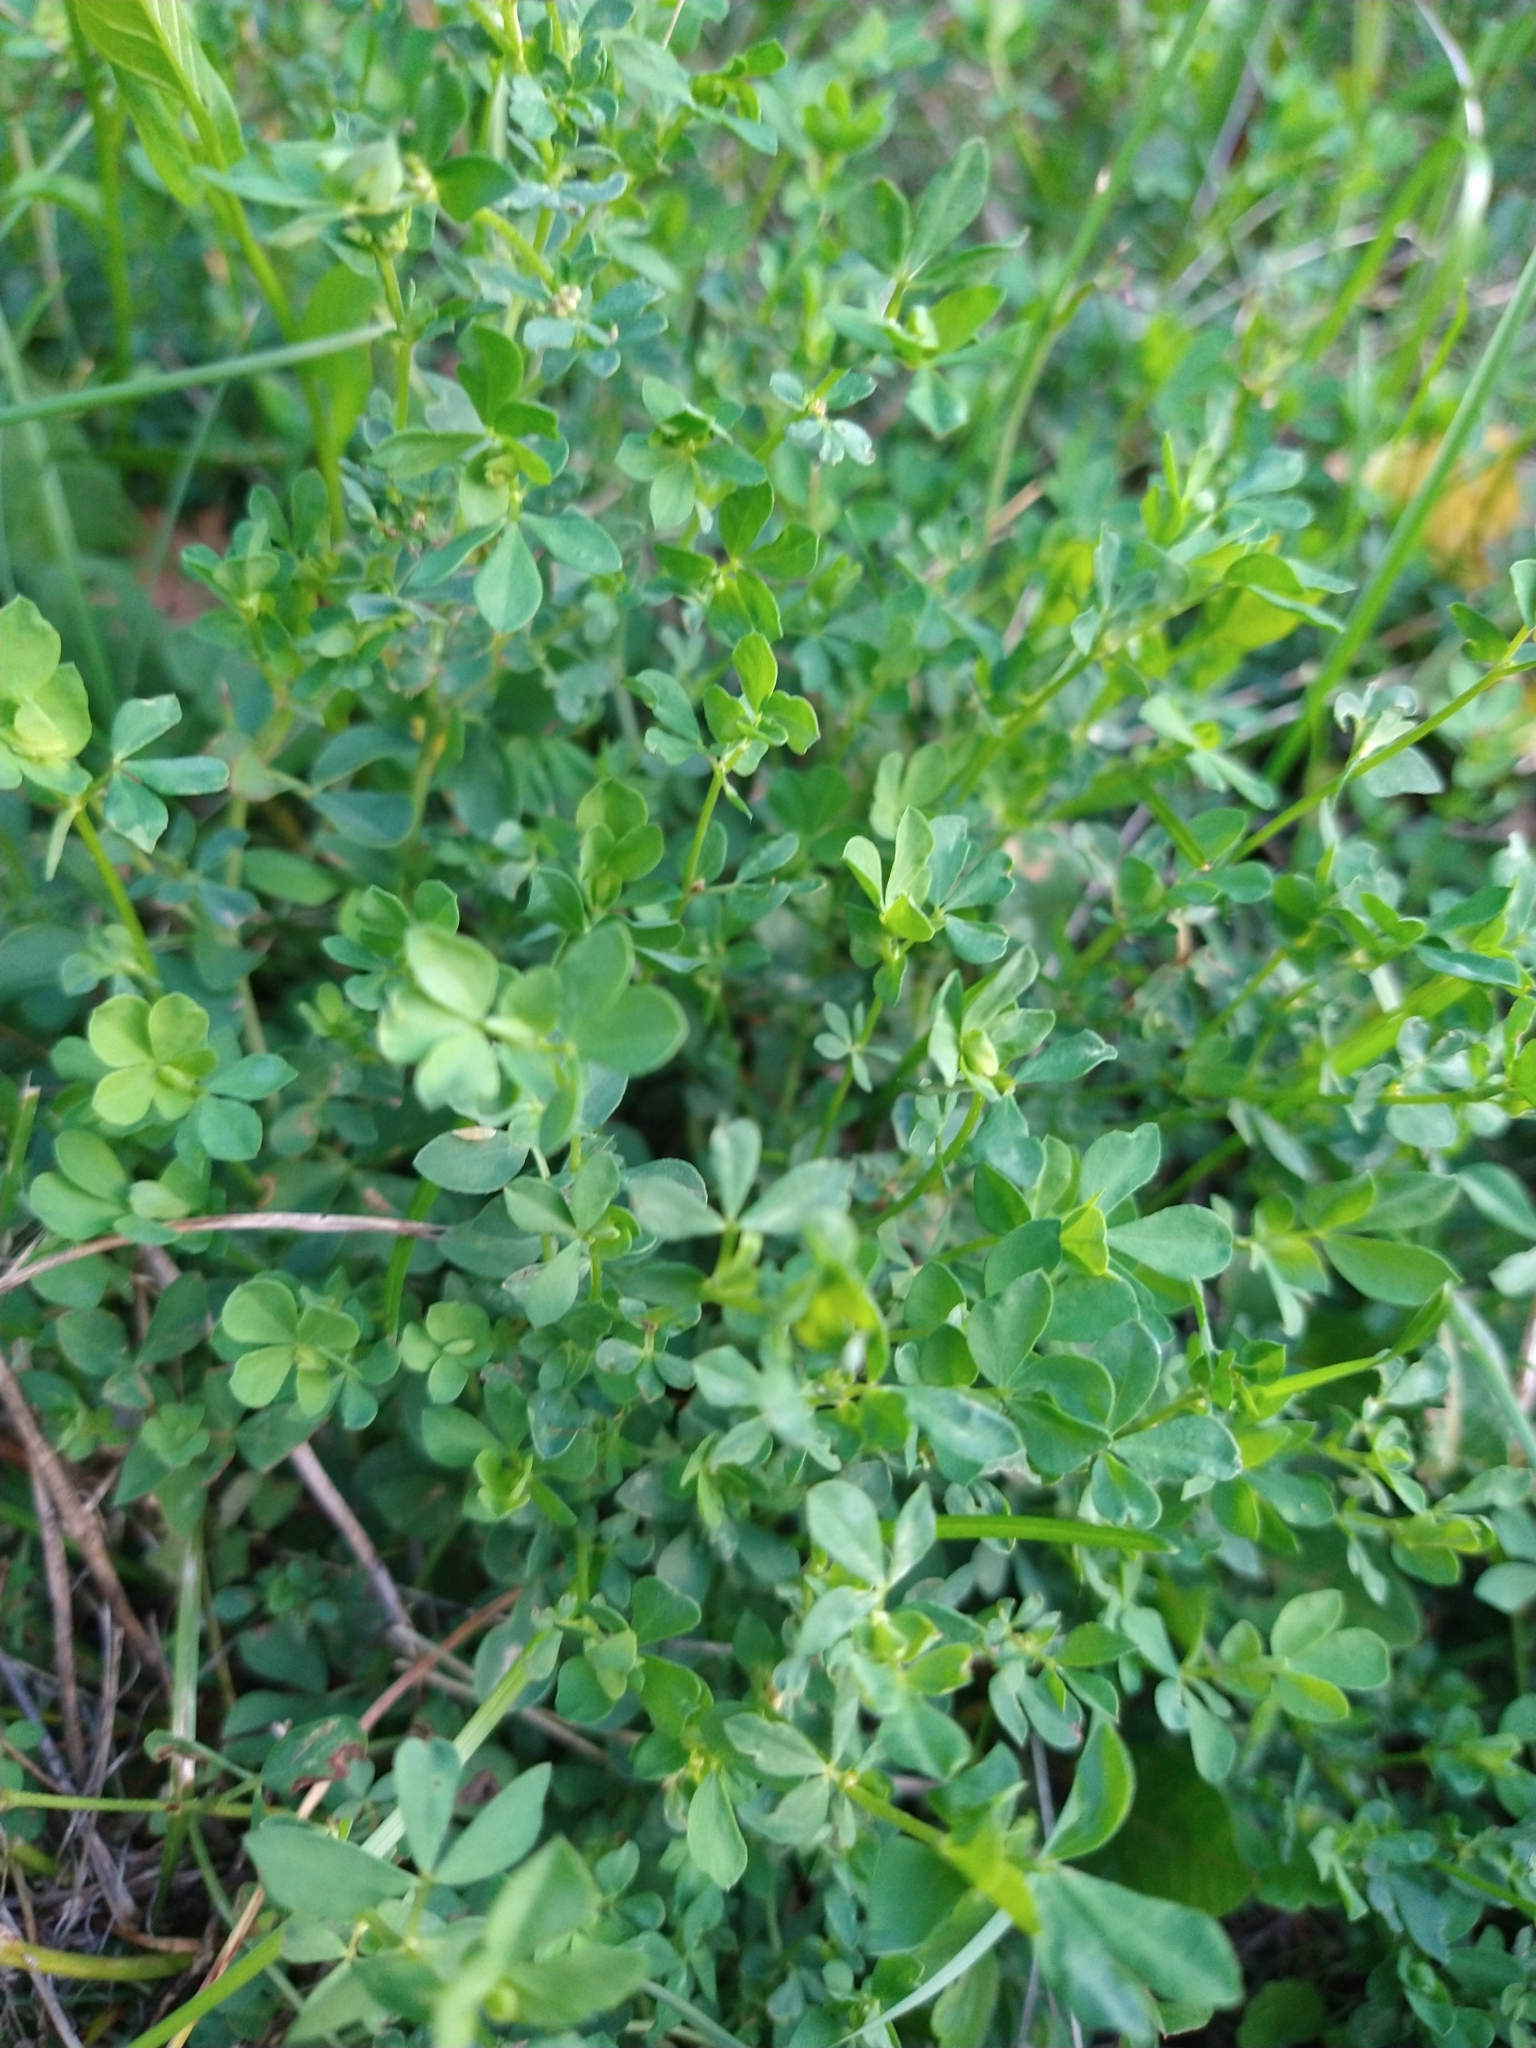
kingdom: Plantae
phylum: Tracheophyta
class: Magnoliopsida
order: Fabales
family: Fabaceae
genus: Lotus
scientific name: Lotus corniculatus
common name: Common bird's-foot-trefoil
